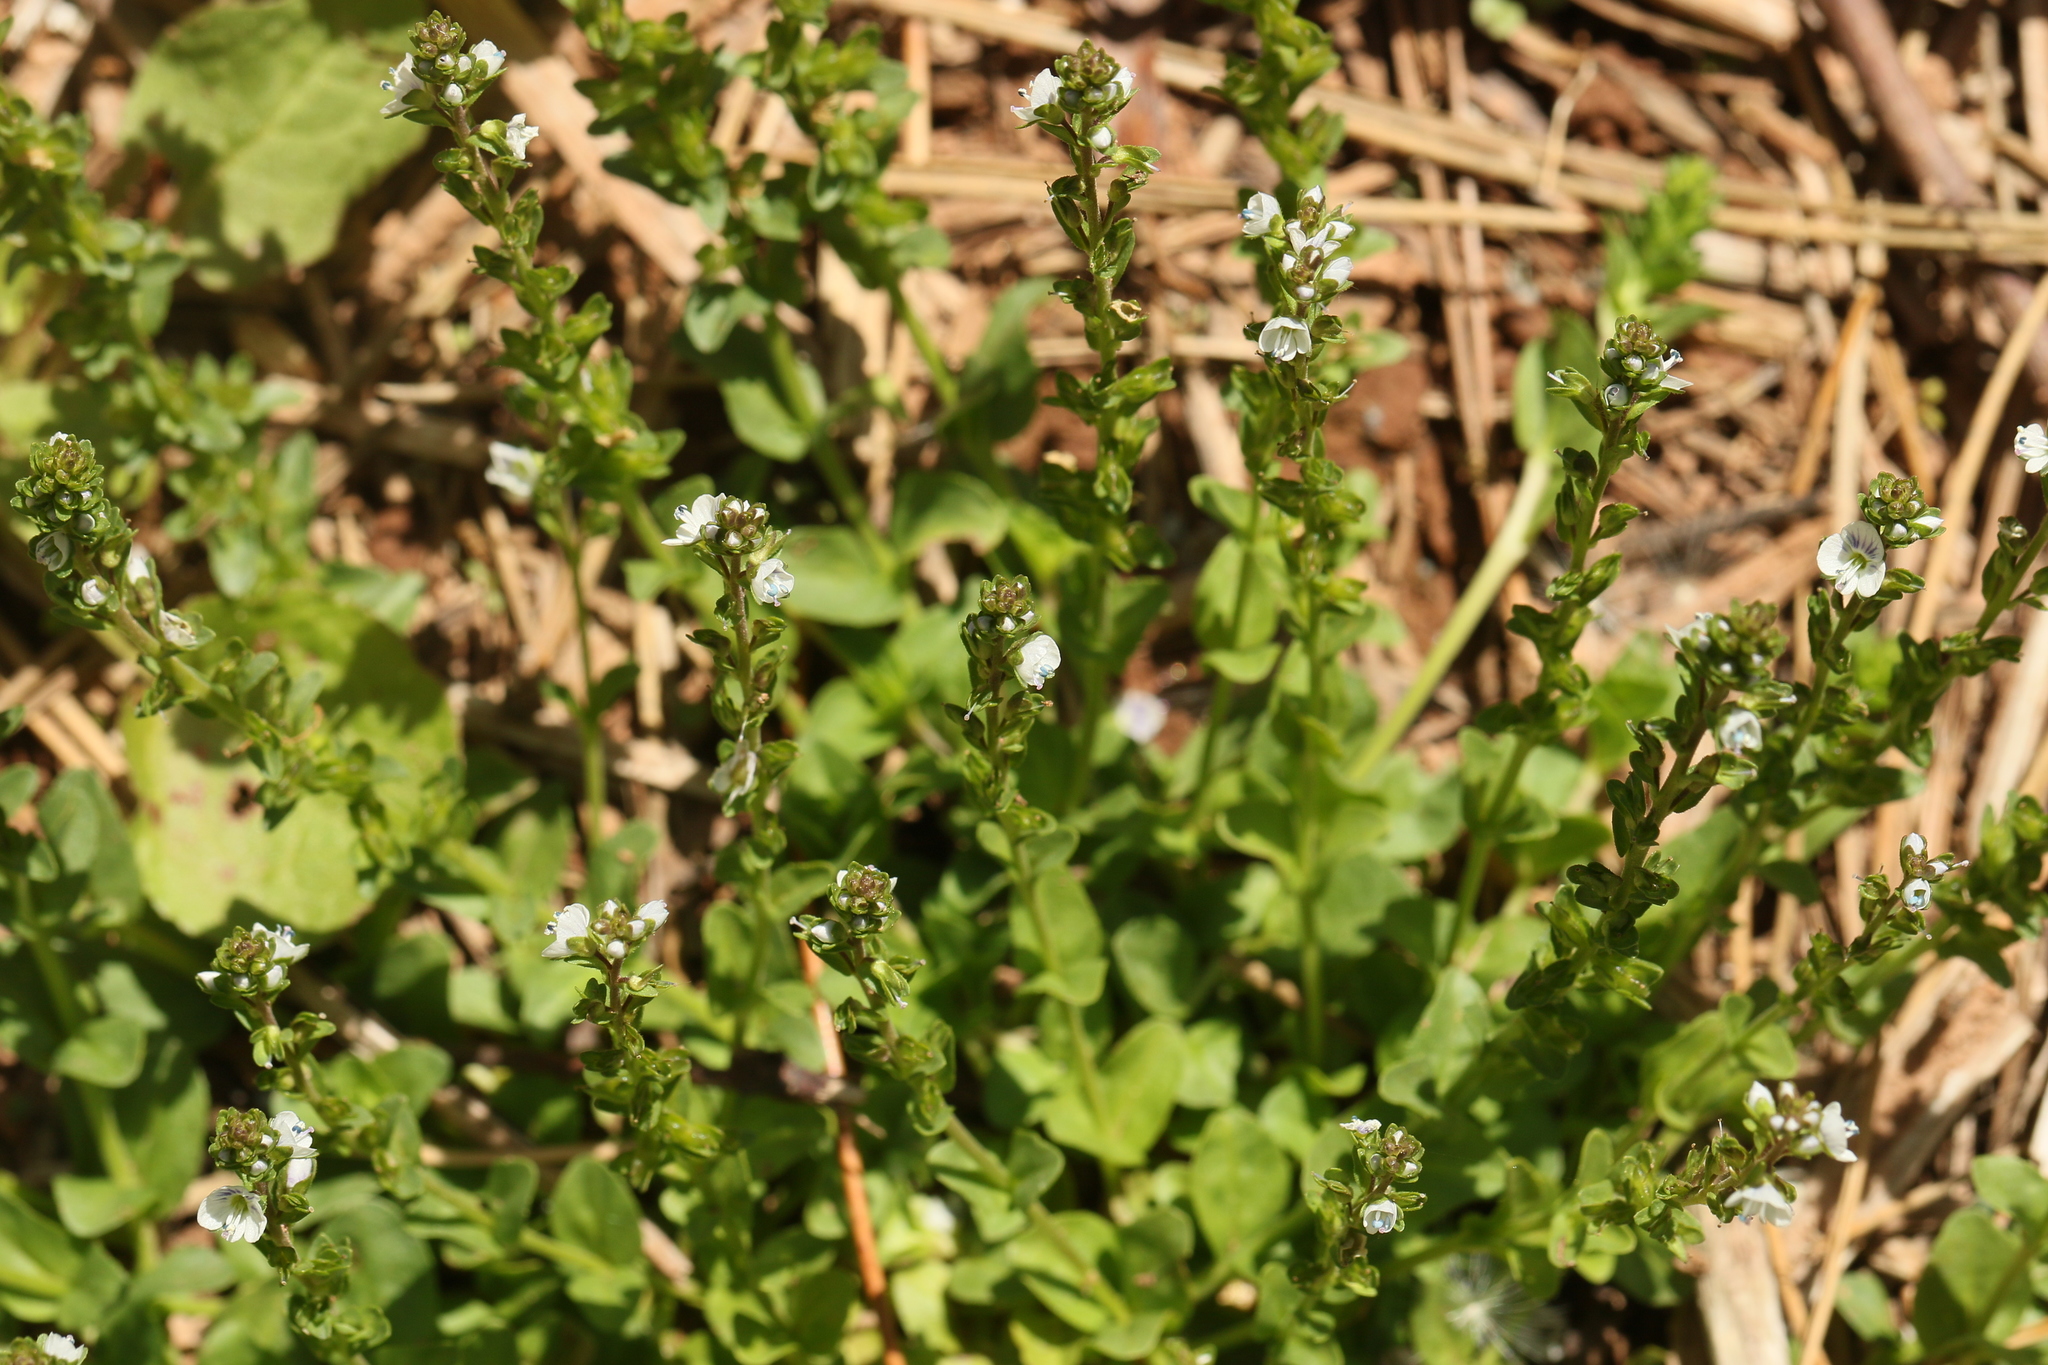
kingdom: Plantae
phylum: Tracheophyta
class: Magnoliopsida
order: Lamiales
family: Plantaginaceae
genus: Veronica
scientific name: Veronica serpyllifolia
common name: Thyme-leaved speedwell
